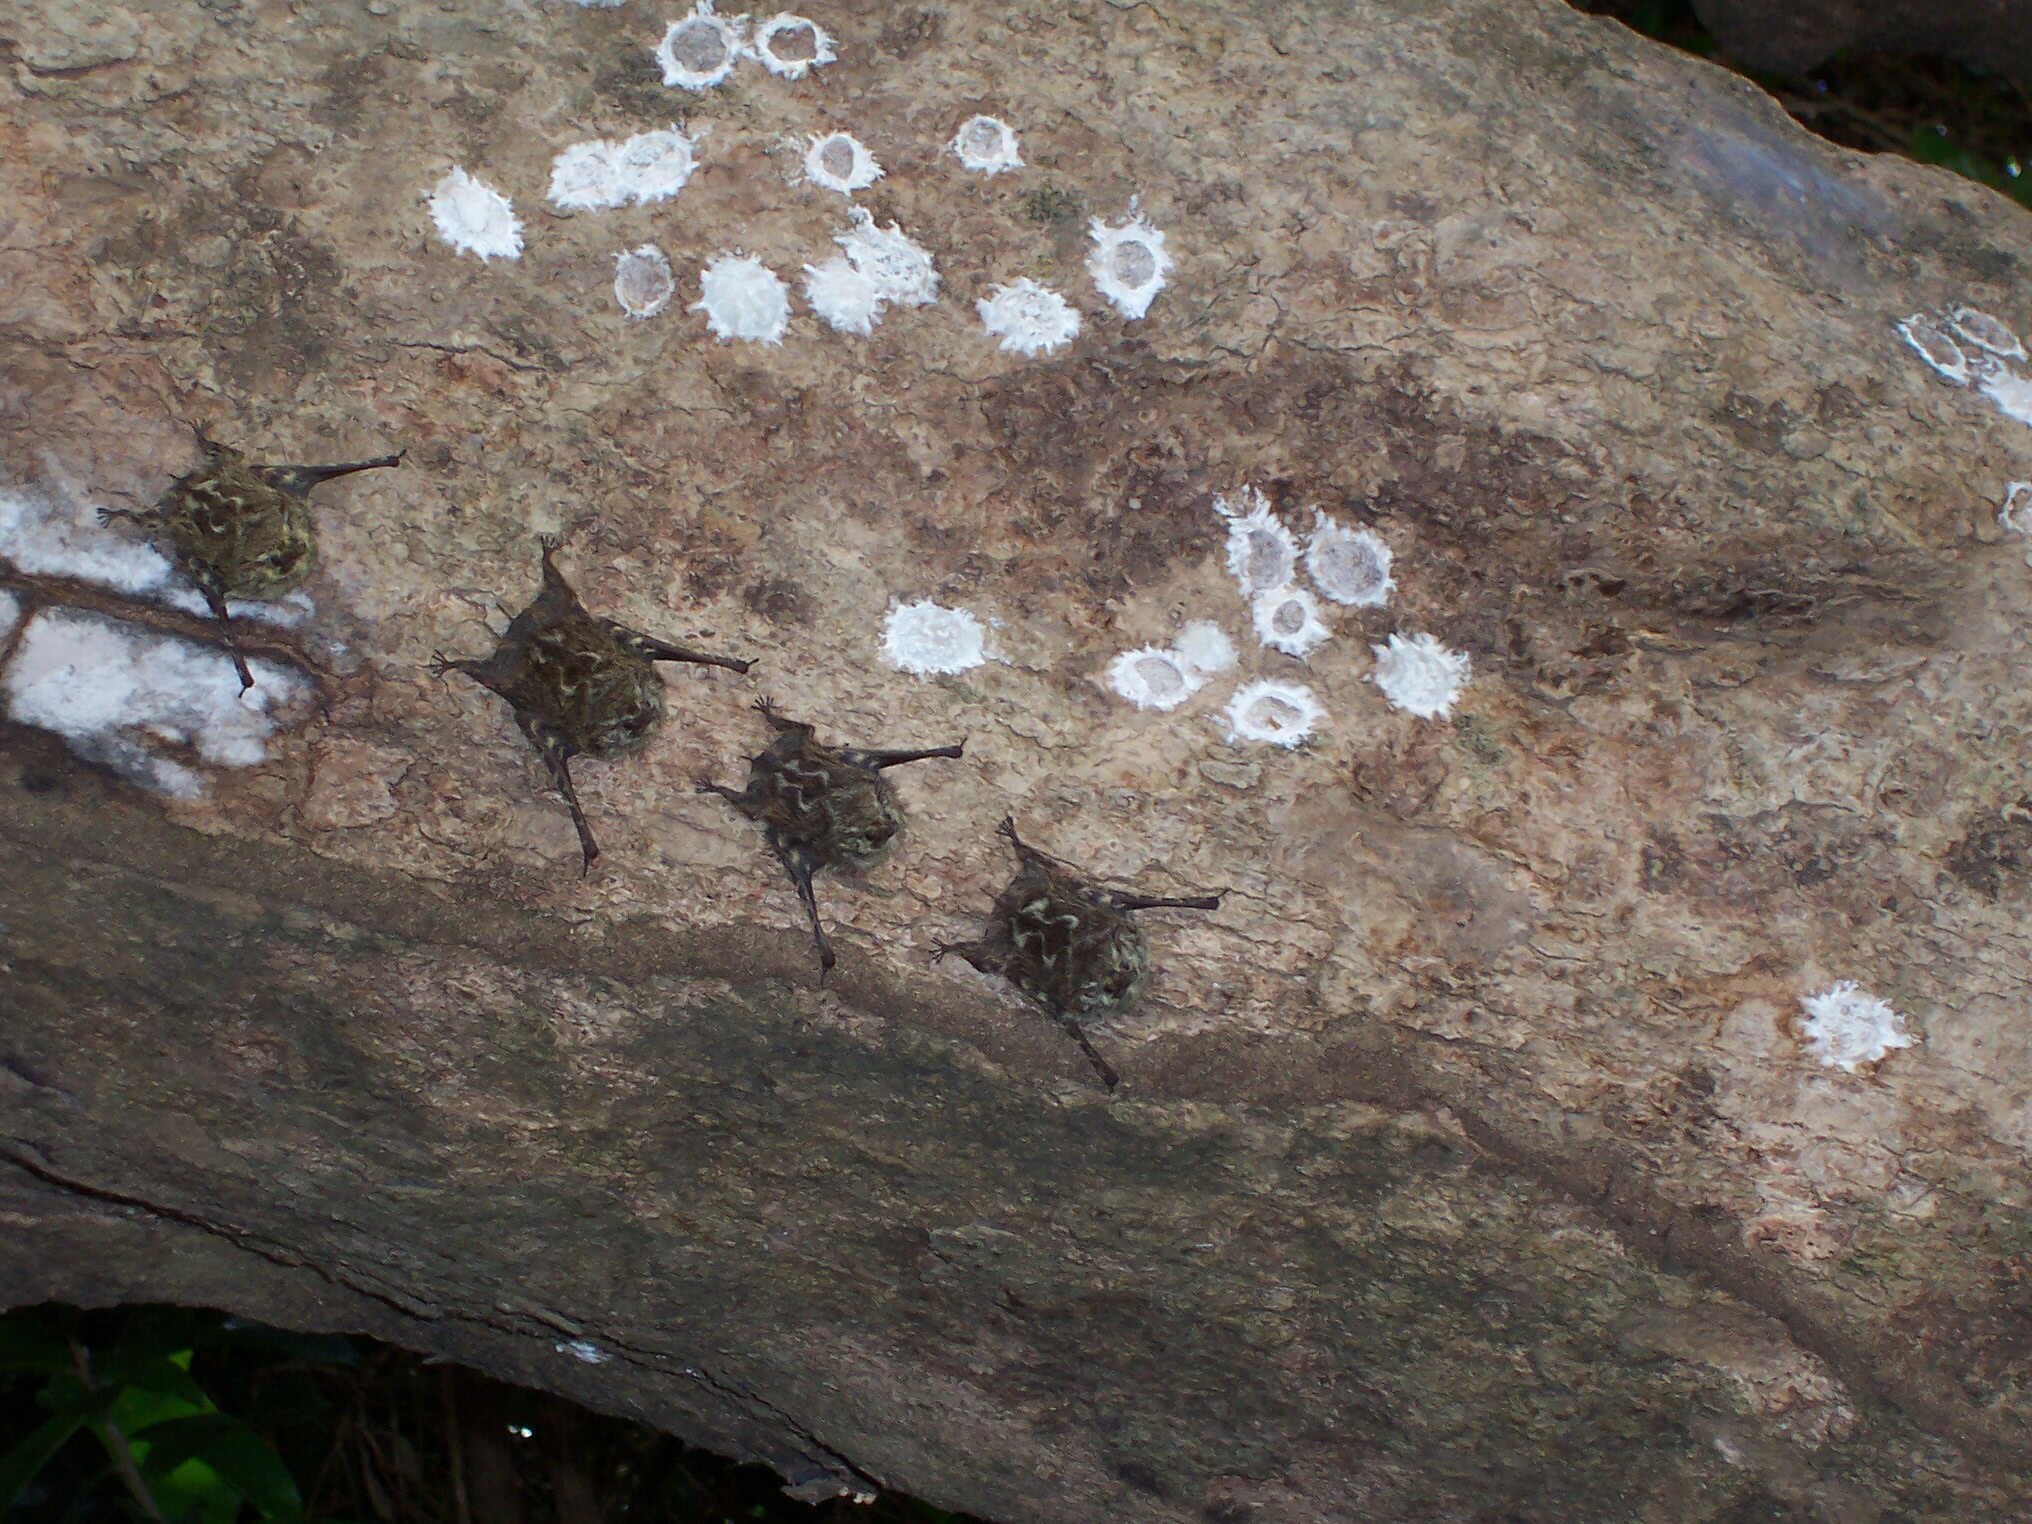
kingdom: Animalia
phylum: Chordata
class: Mammalia
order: Chiroptera
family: Emballonuridae
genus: Rhynchonycteris
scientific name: Rhynchonycteris naso
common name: Proboscis bat
